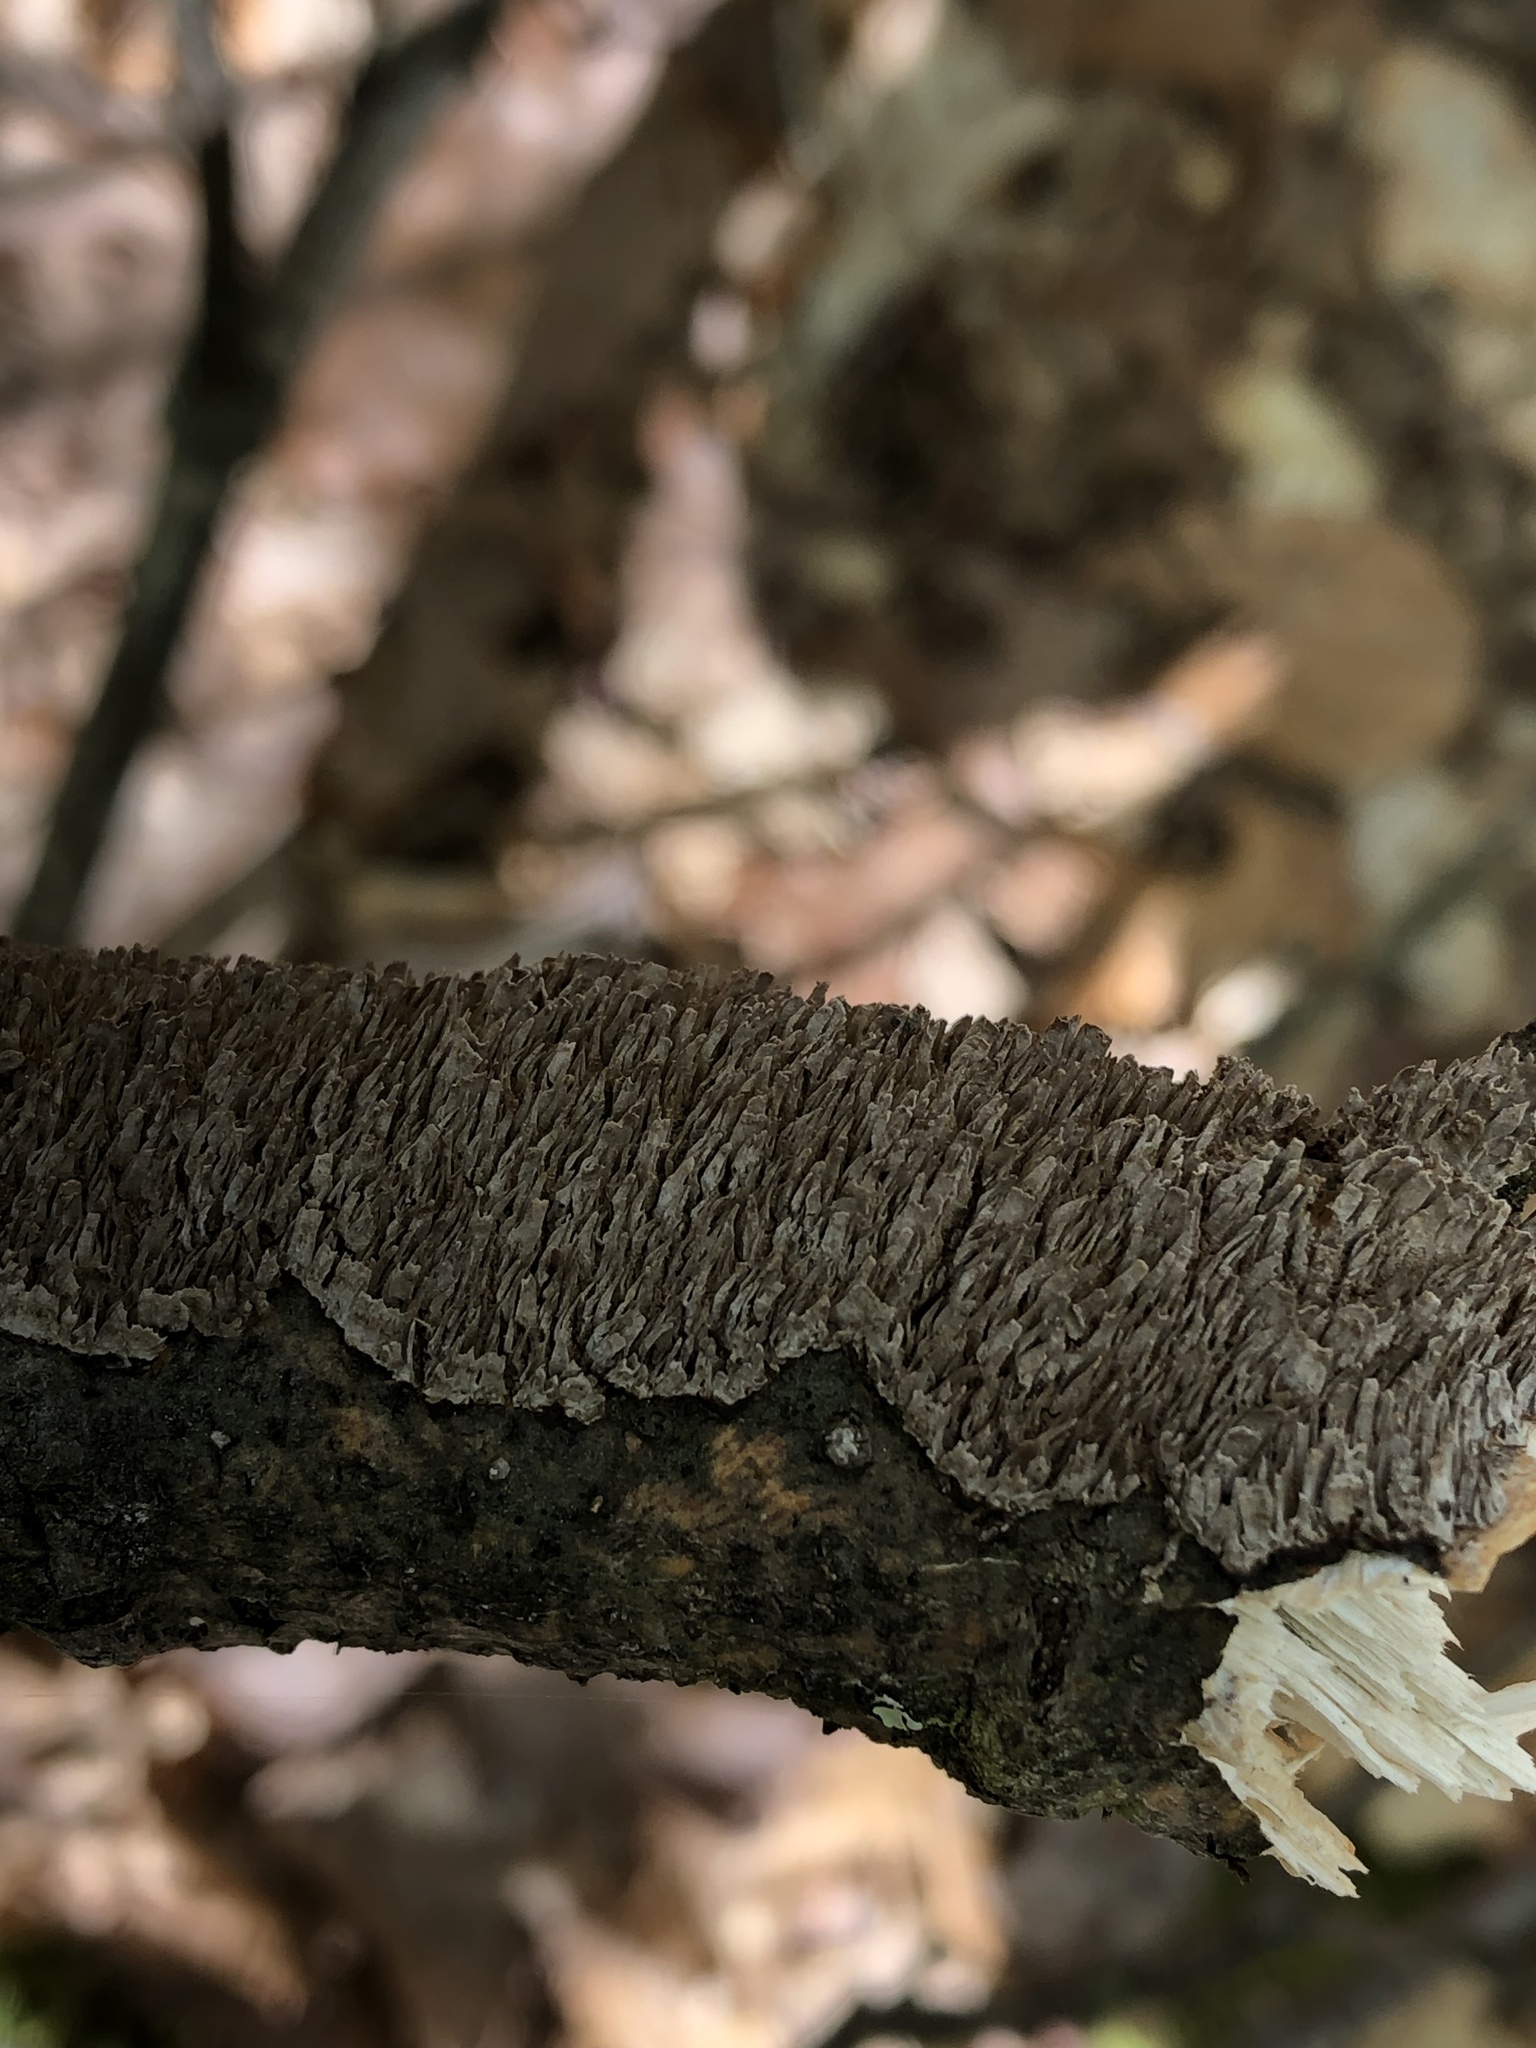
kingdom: Fungi
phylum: Basidiomycota
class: Agaricomycetes
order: Hymenochaetales
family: Hymenochaetaceae
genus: Hydnoporia
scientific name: Hydnoporia olivacea
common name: Brown-toothed crust fungus
